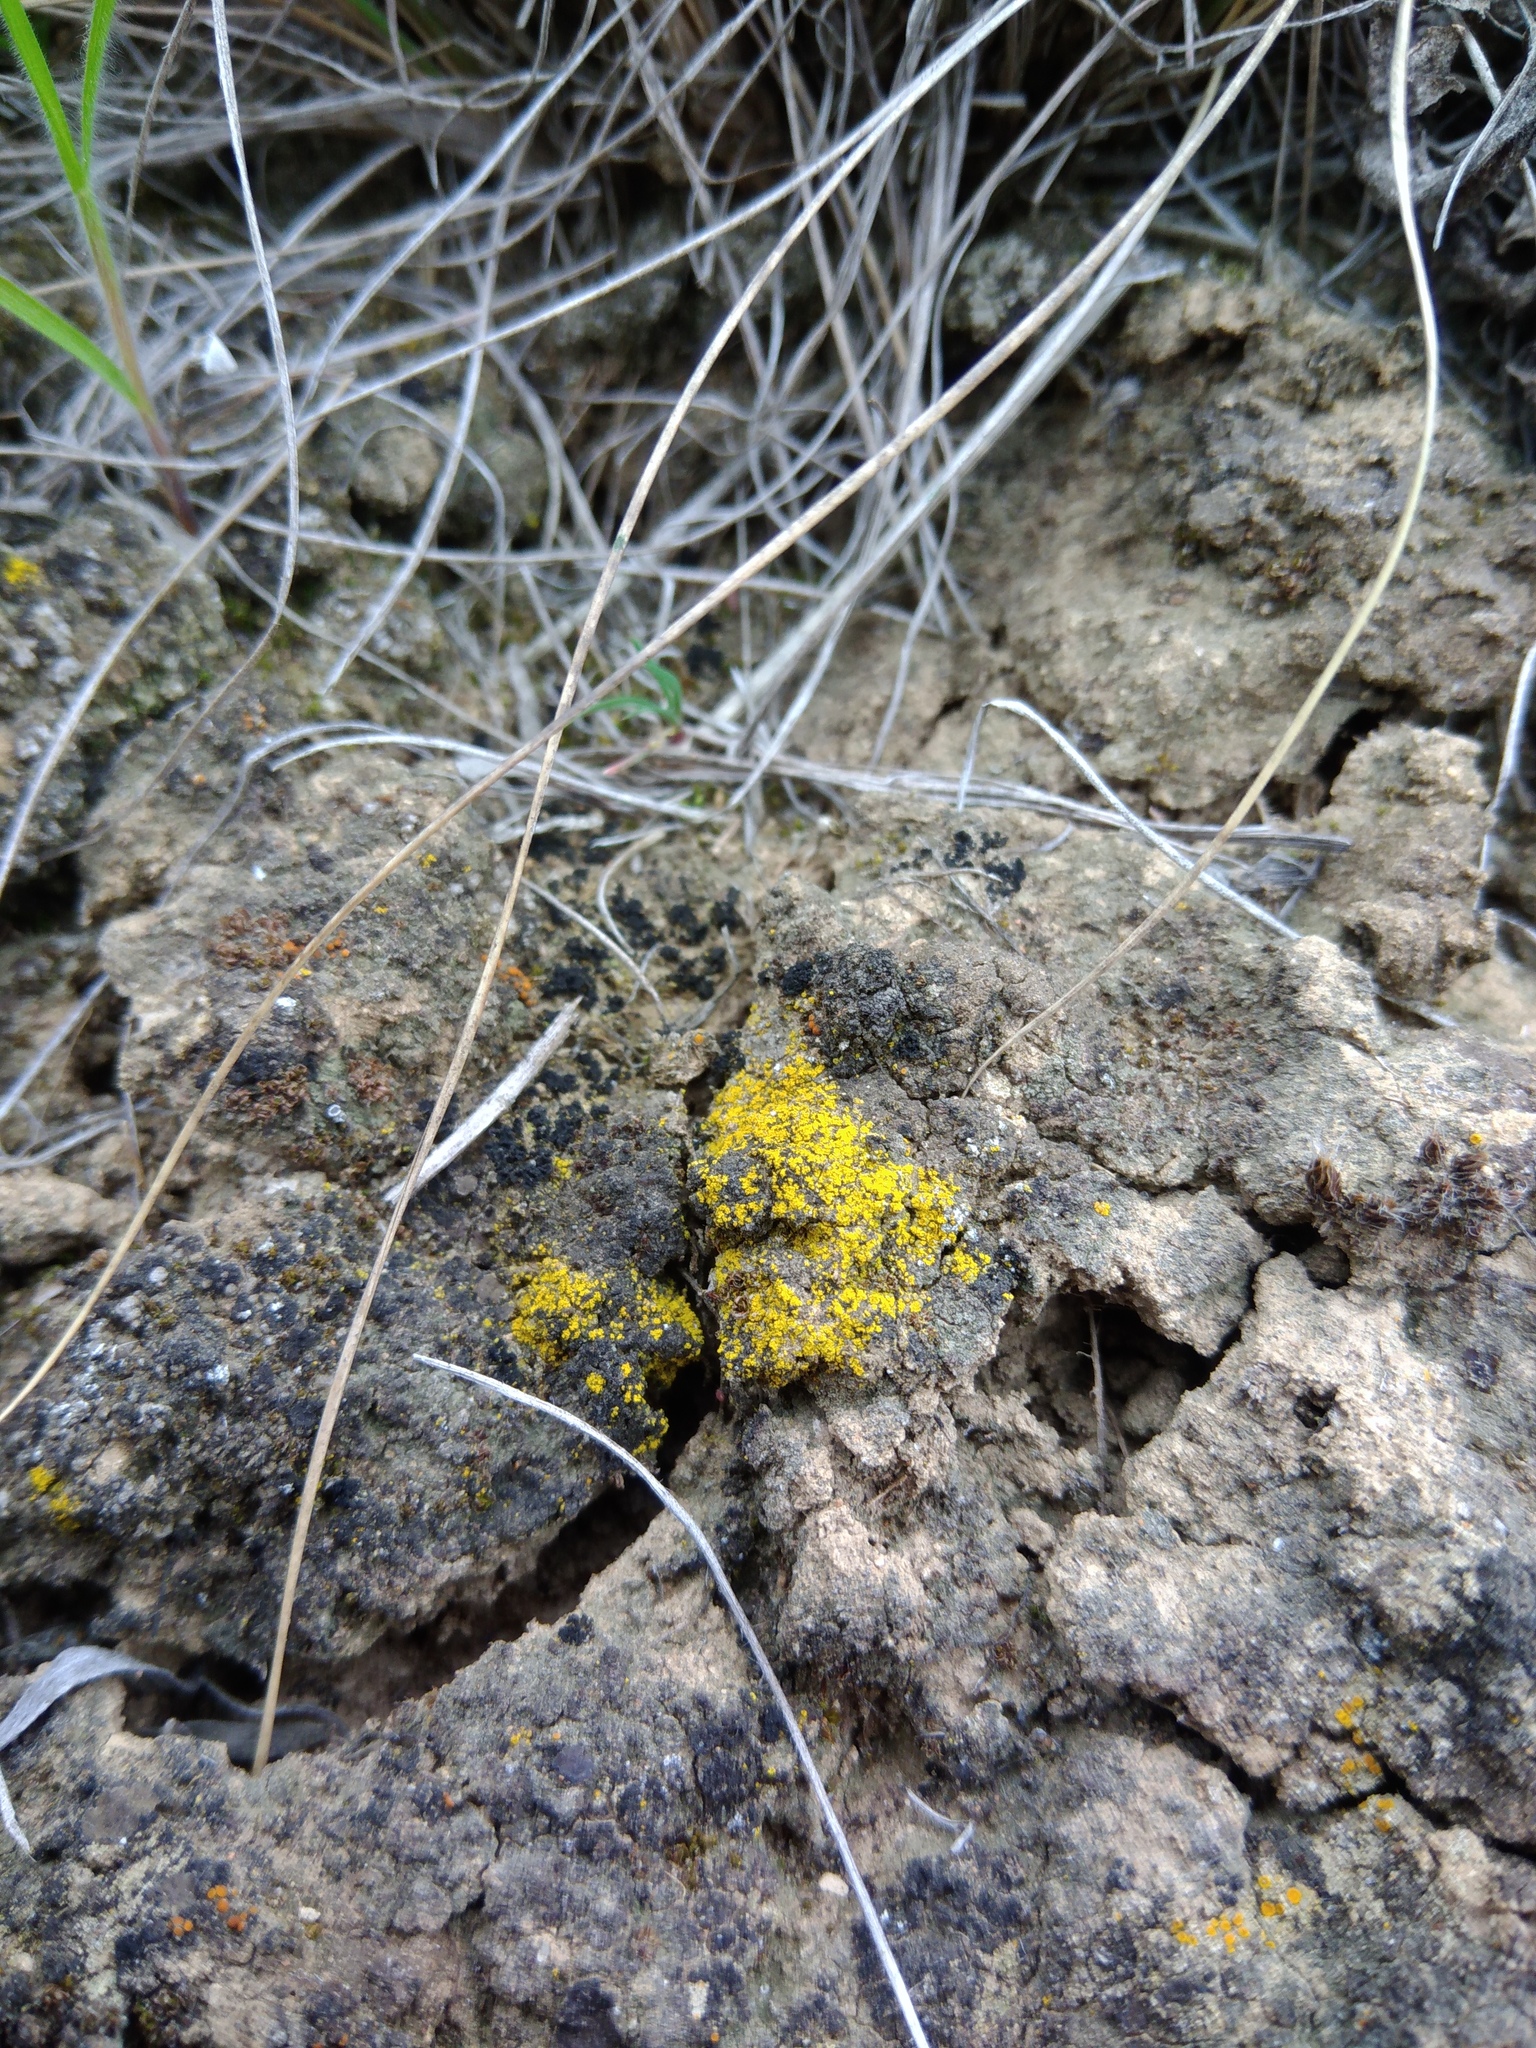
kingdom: Fungi
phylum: Ascomycota
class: Lecanoromycetes
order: Teloschistales
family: Teloschistaceae
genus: Xanthocarpia
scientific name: Xanthocarpia tominii
